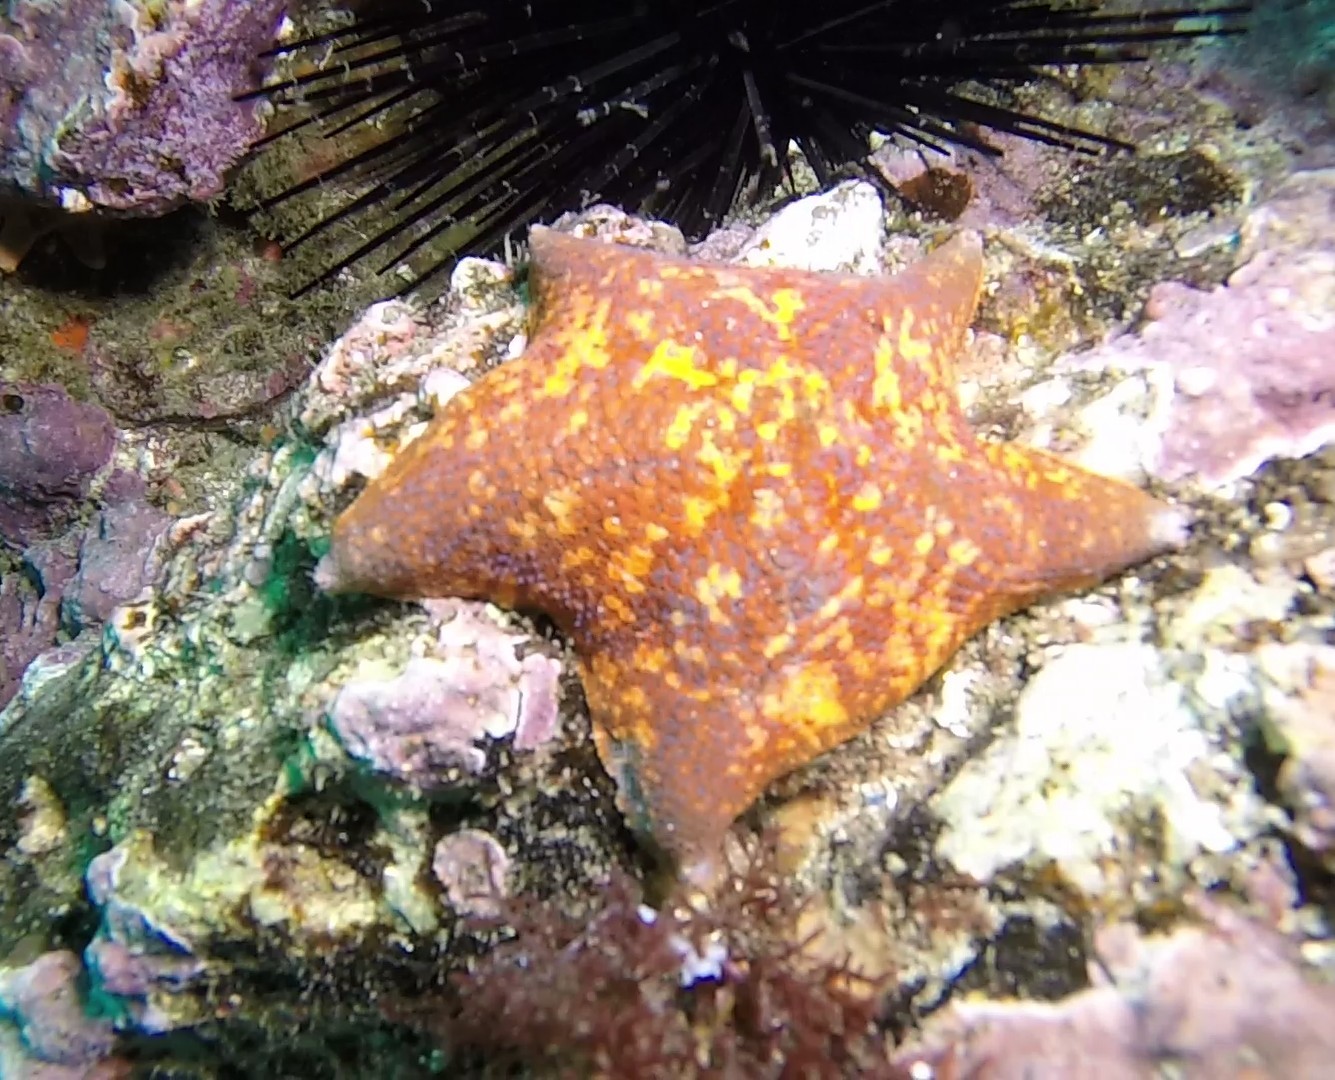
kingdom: Animalia
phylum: Echinodermata
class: Asteroidea
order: Valvatida
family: Asterinidae
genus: Patiria
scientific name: Patiria miniata
